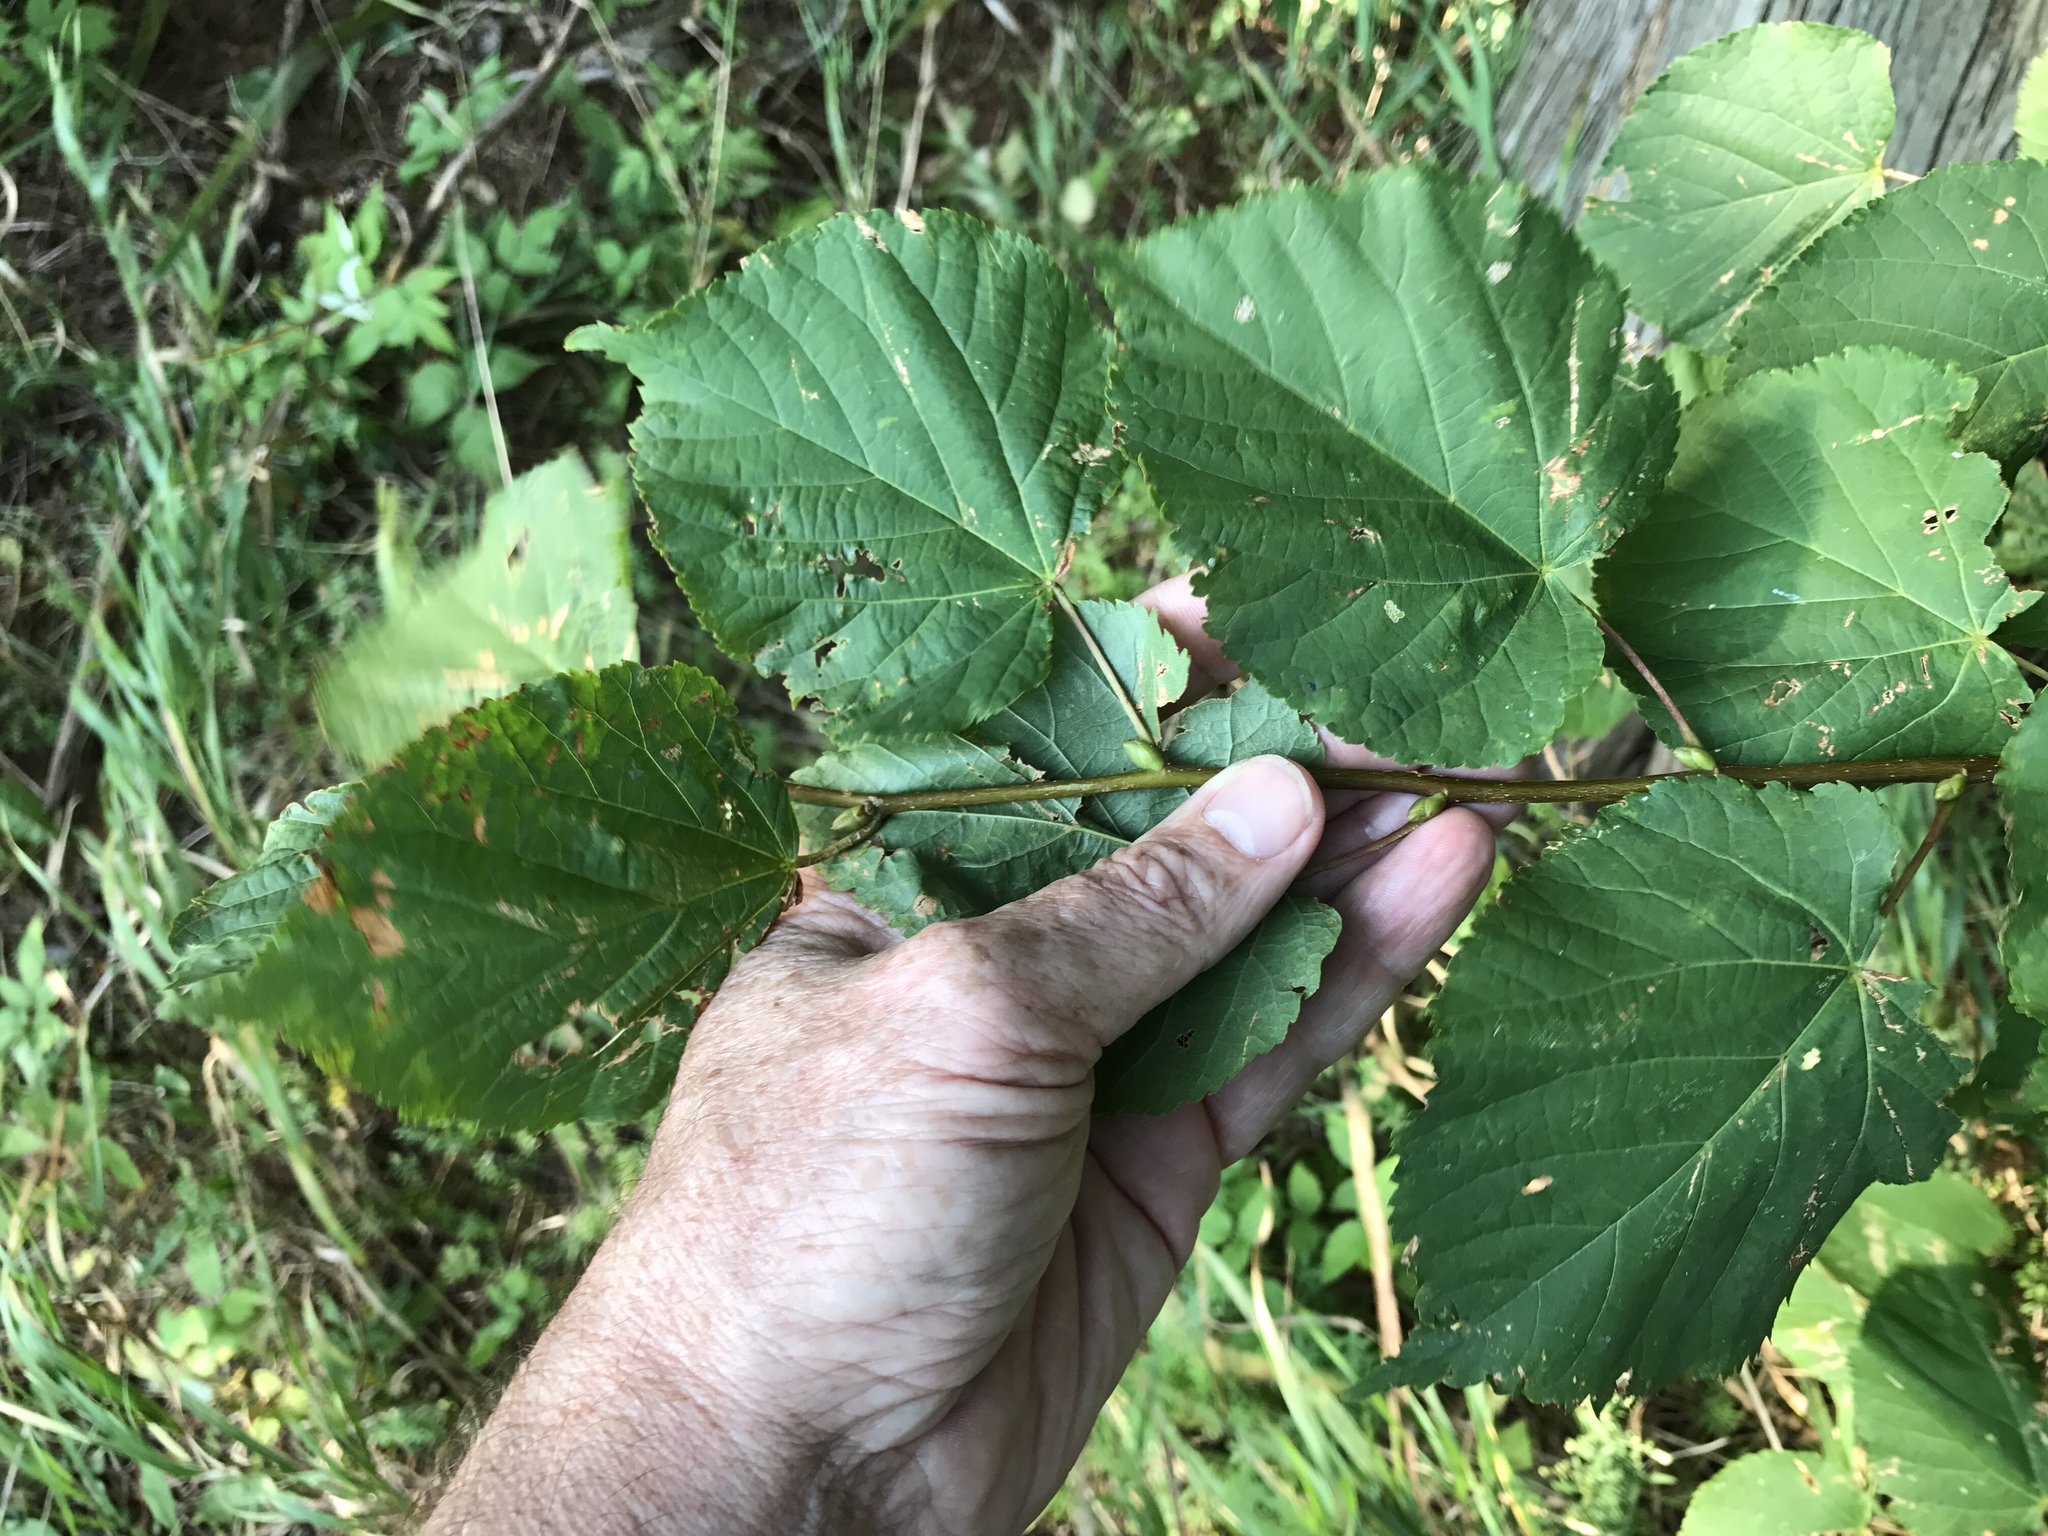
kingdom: Plantae
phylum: Tracheophyta
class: Magnoliopsida
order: Malvales
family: Malvaceae
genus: Tilia
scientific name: Tilia americana
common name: Basswood
